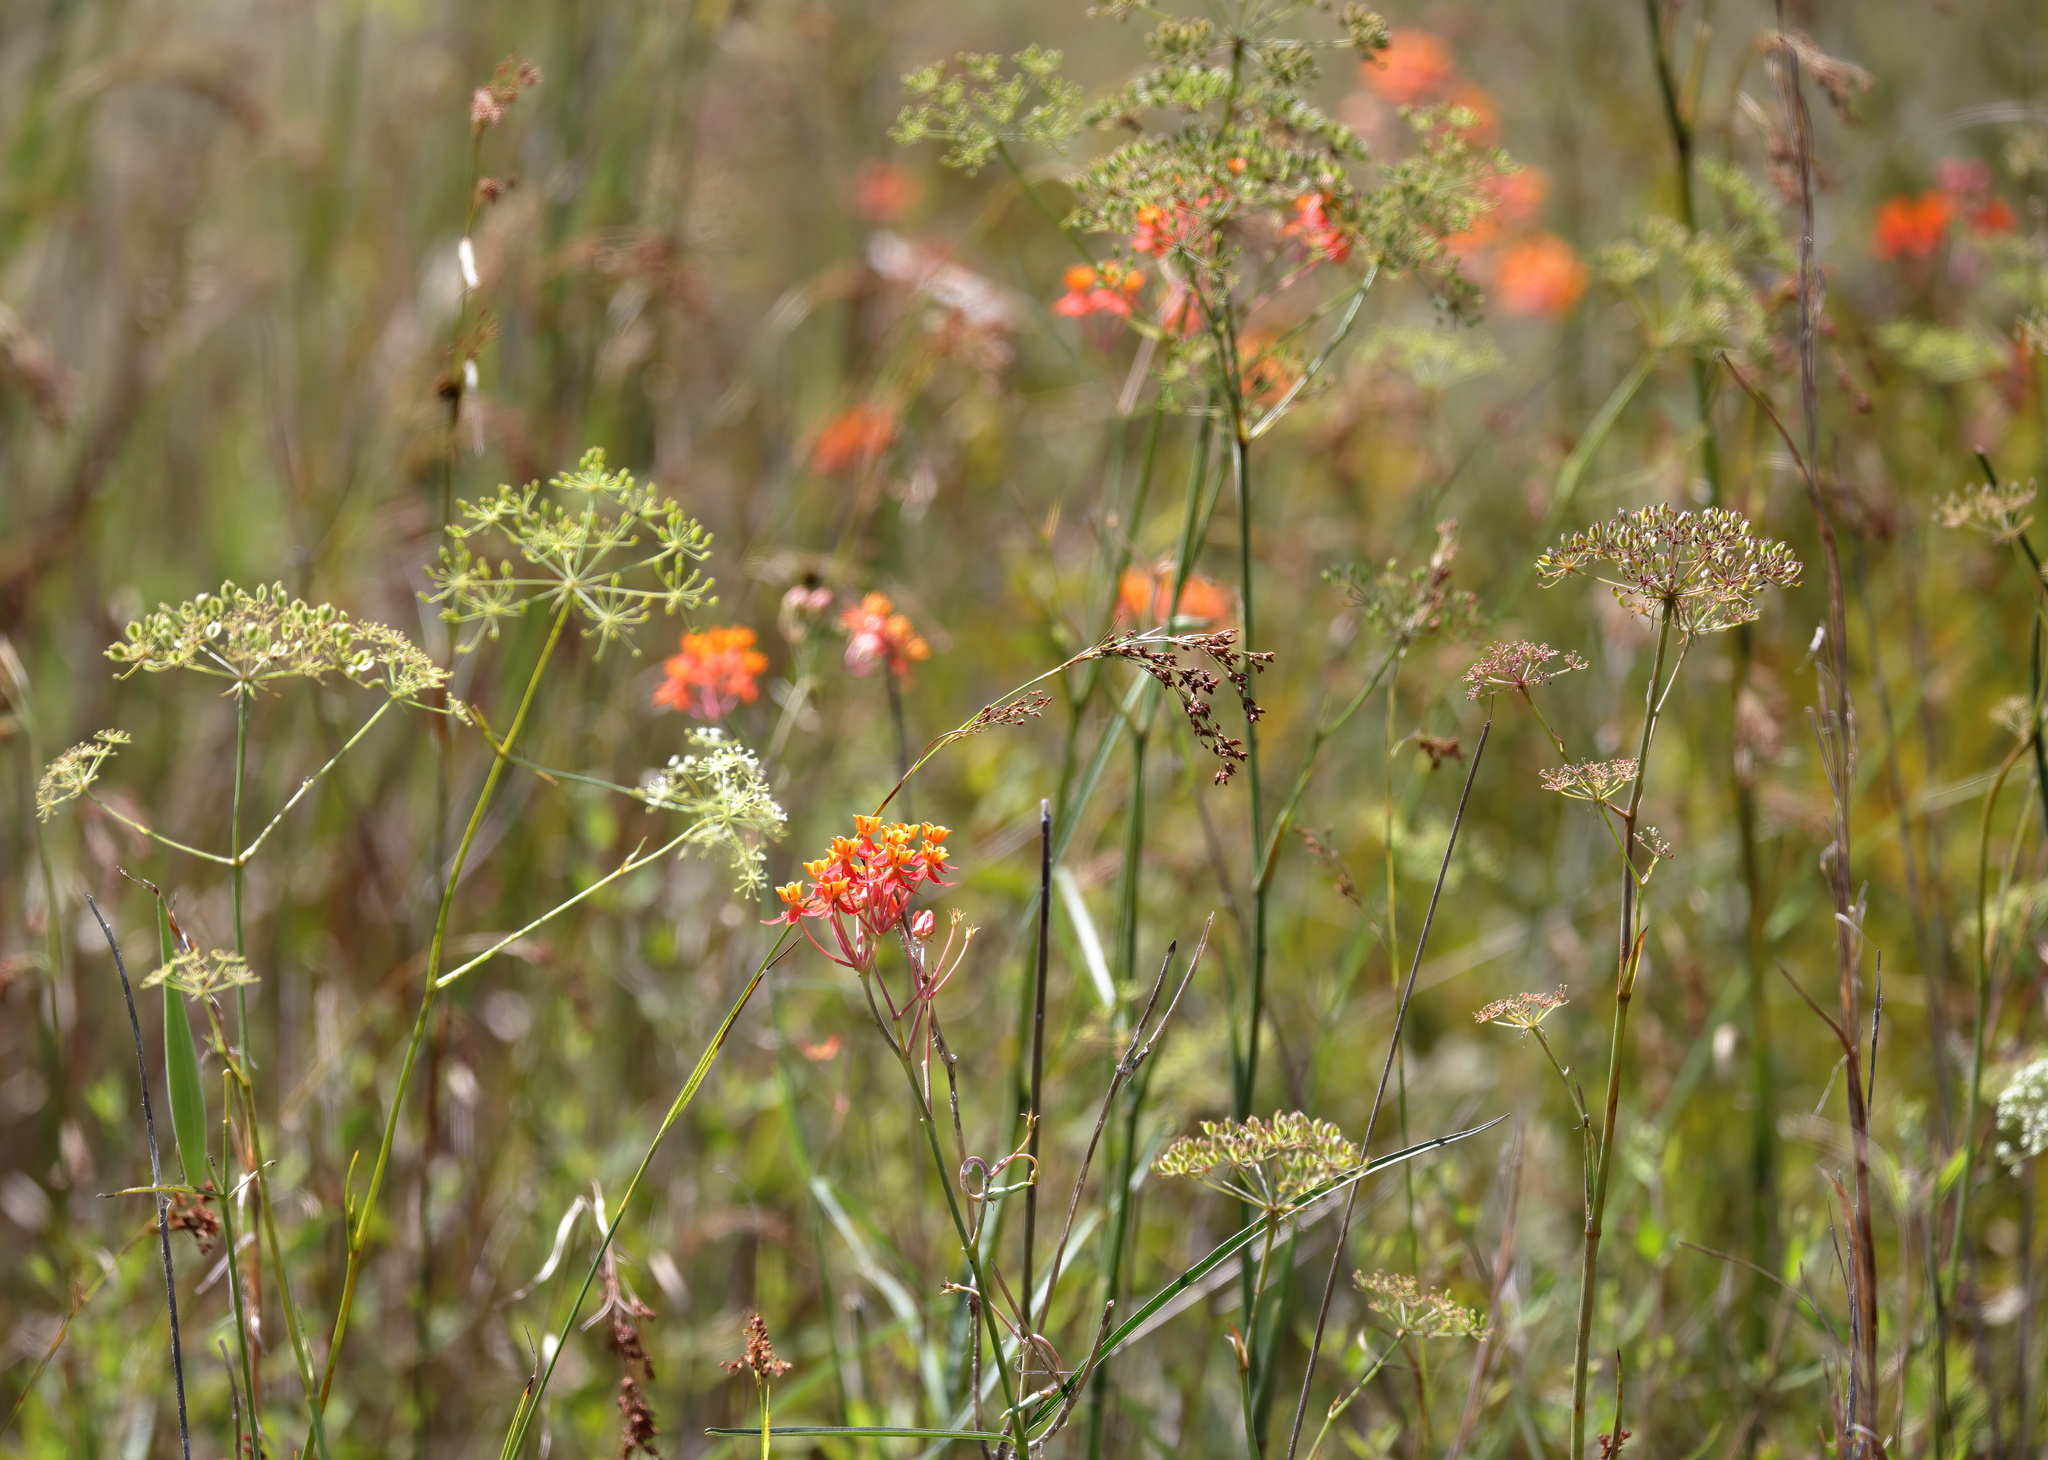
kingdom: Plantae
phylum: Tracheophyta
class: Magnoliopsida
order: Gentianales
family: Apocynaceae
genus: Asclepias
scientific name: Asclepias lanceolata
